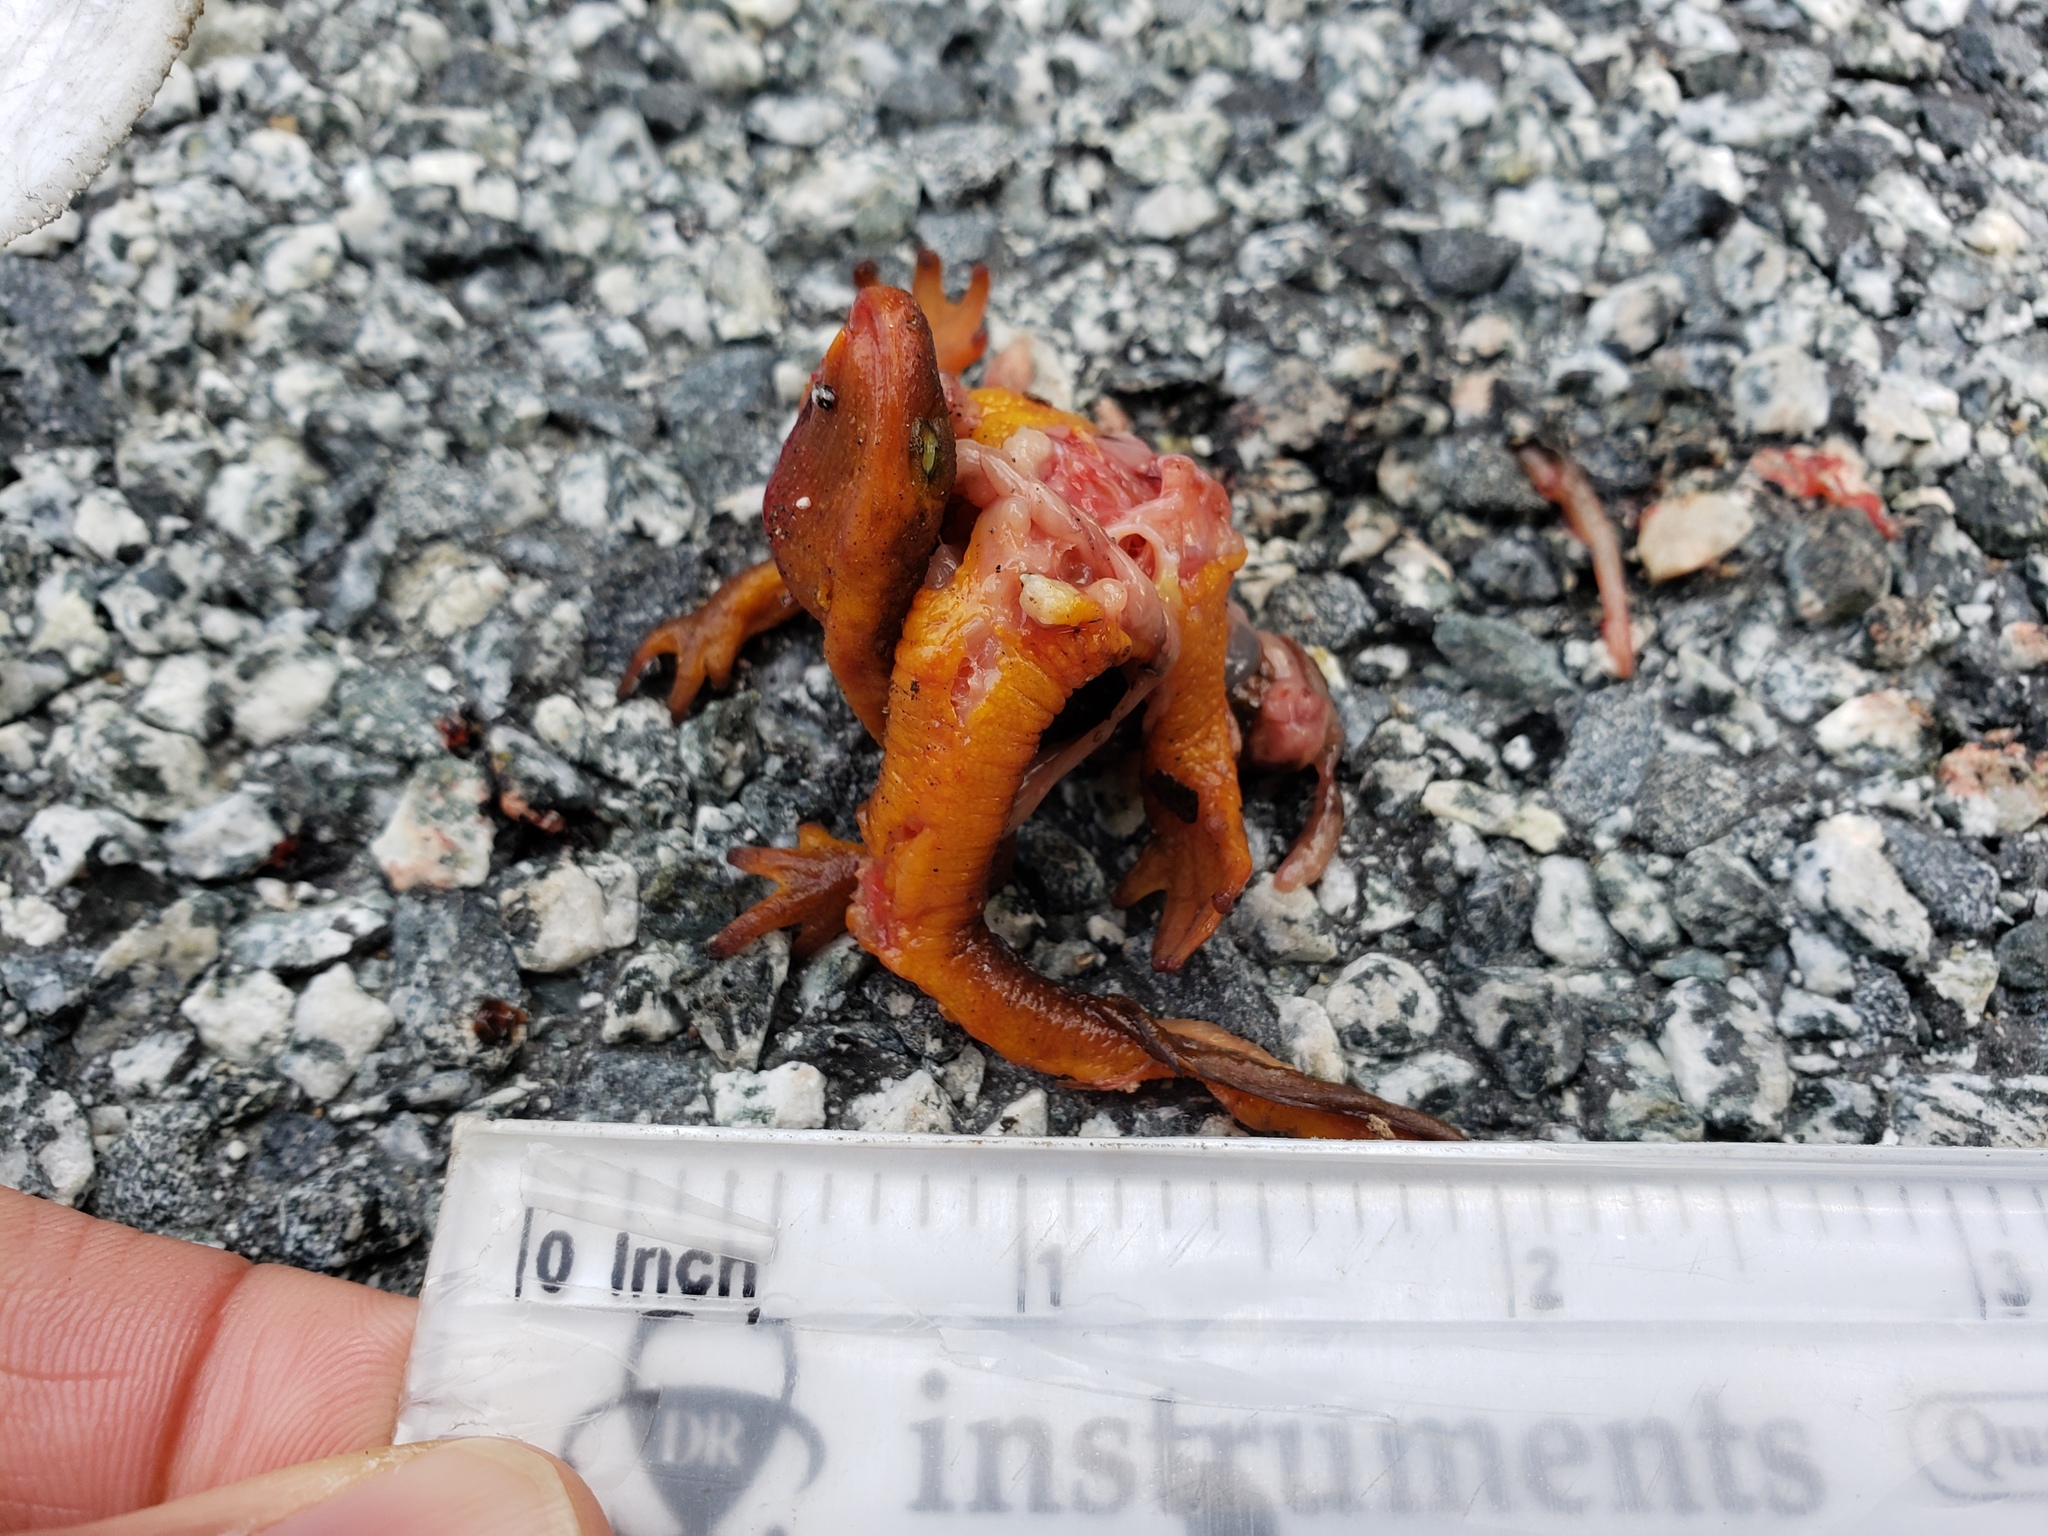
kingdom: Animalia
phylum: Chordata
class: Amphibia
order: Caudata
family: Salamandridae
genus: Taricha
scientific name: Taricha
